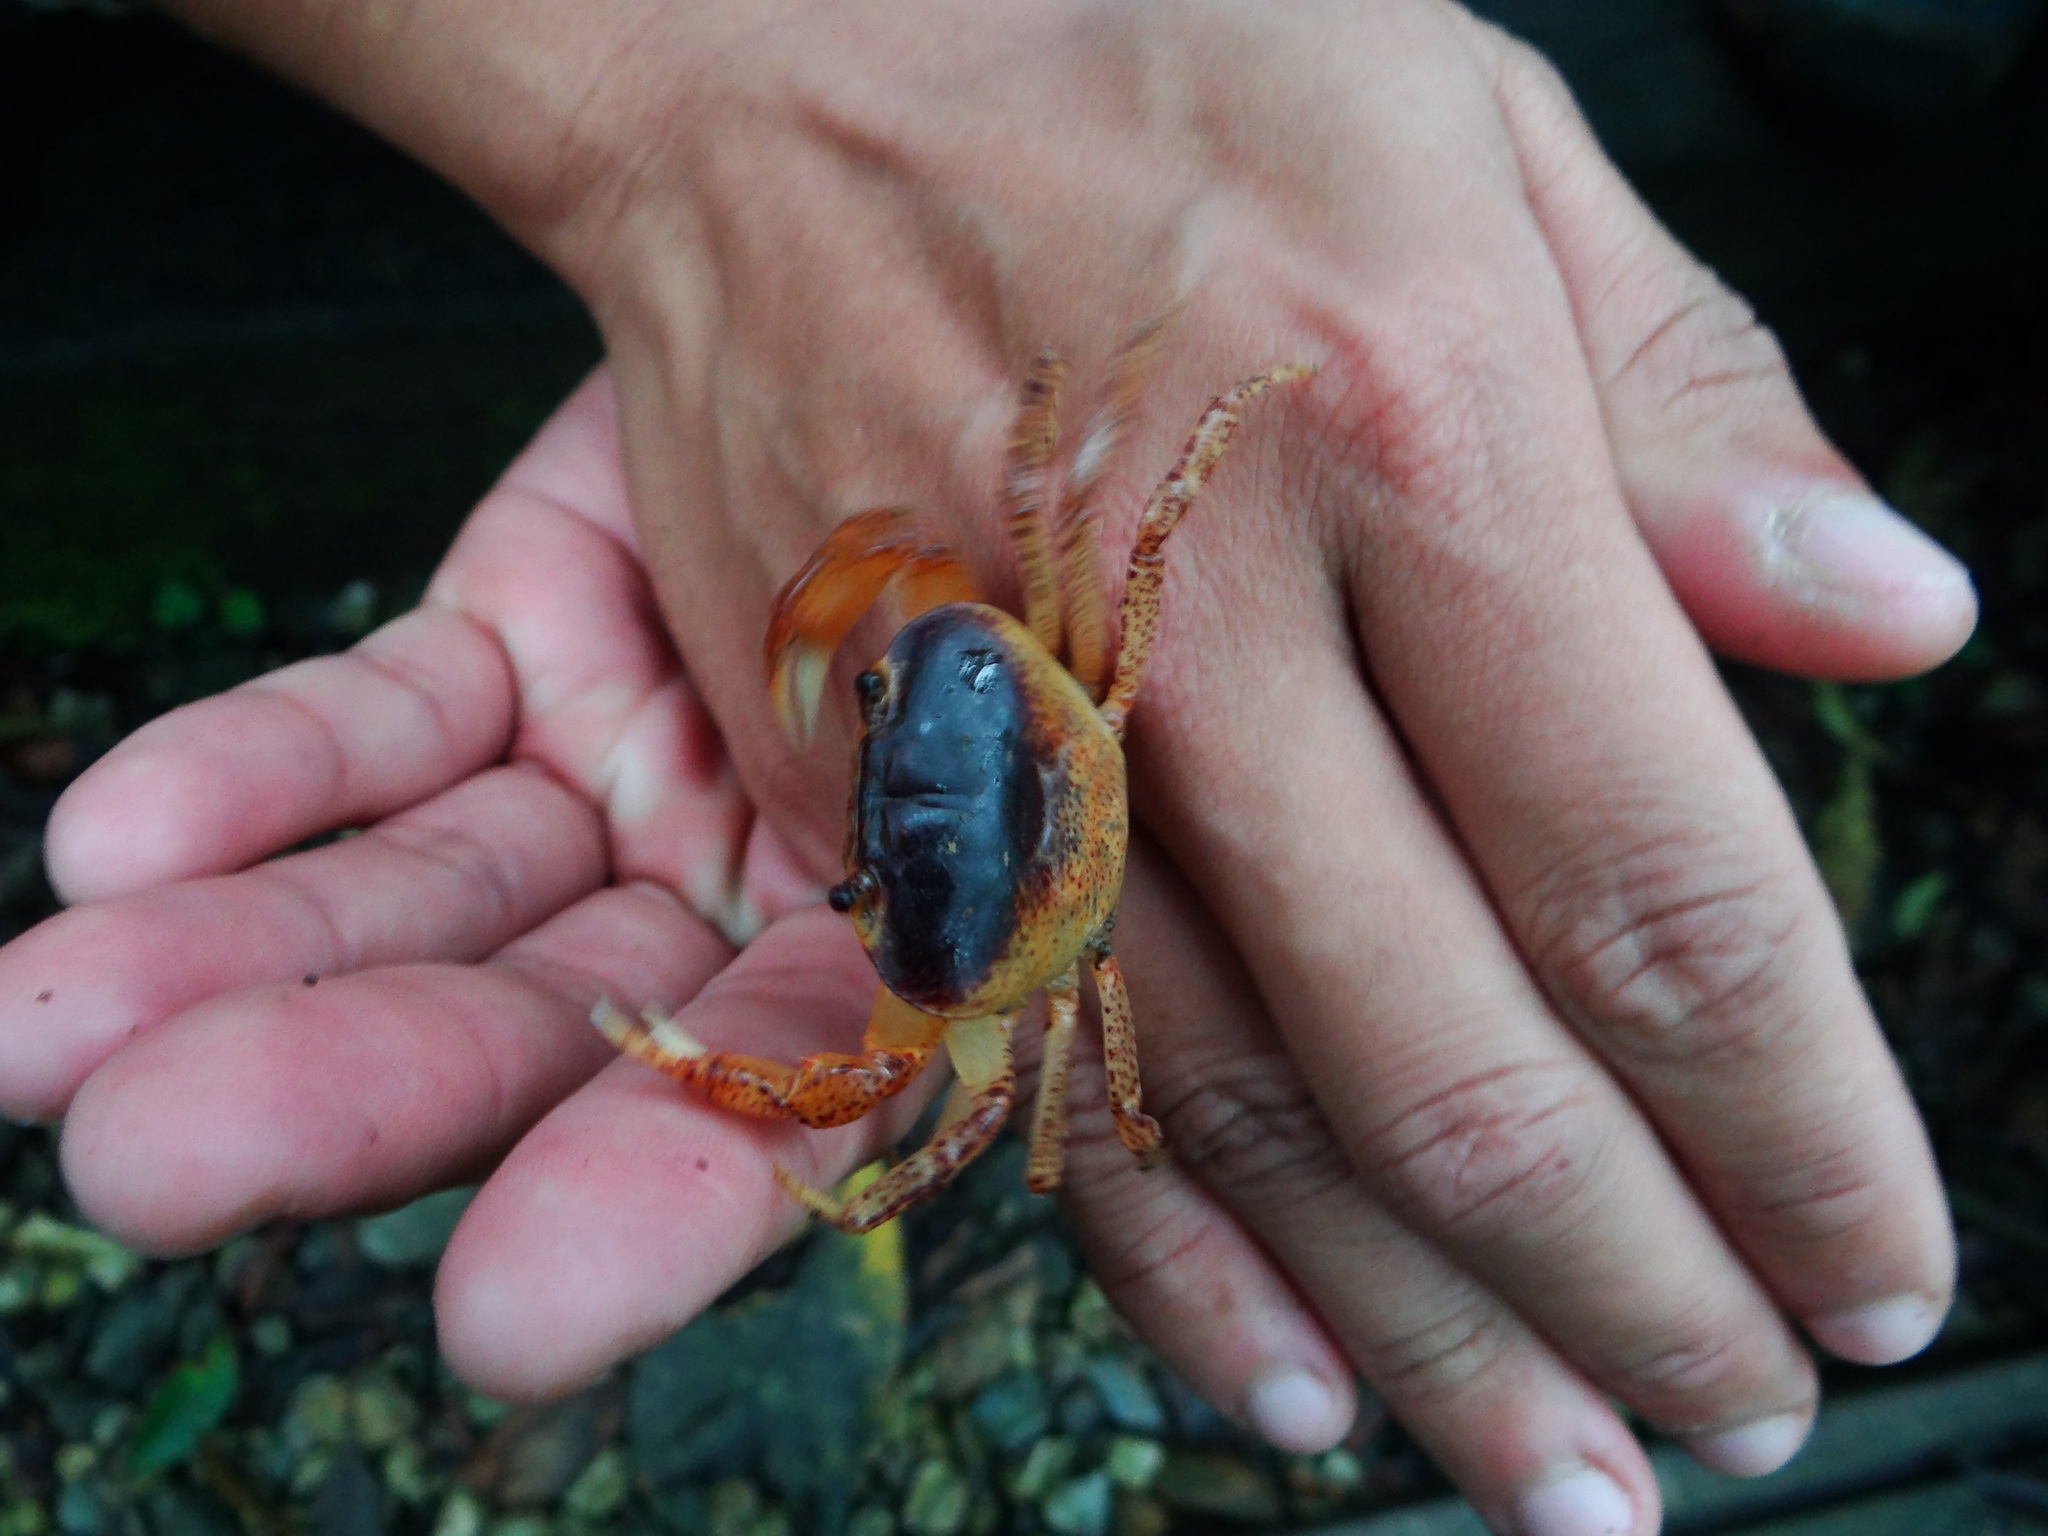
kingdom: Animalia
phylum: Arthropoda
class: Malacostraca
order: Decapoda
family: Potamidae
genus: Geothelphusa
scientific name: Geothelphusa bicolor
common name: Two-color crab
